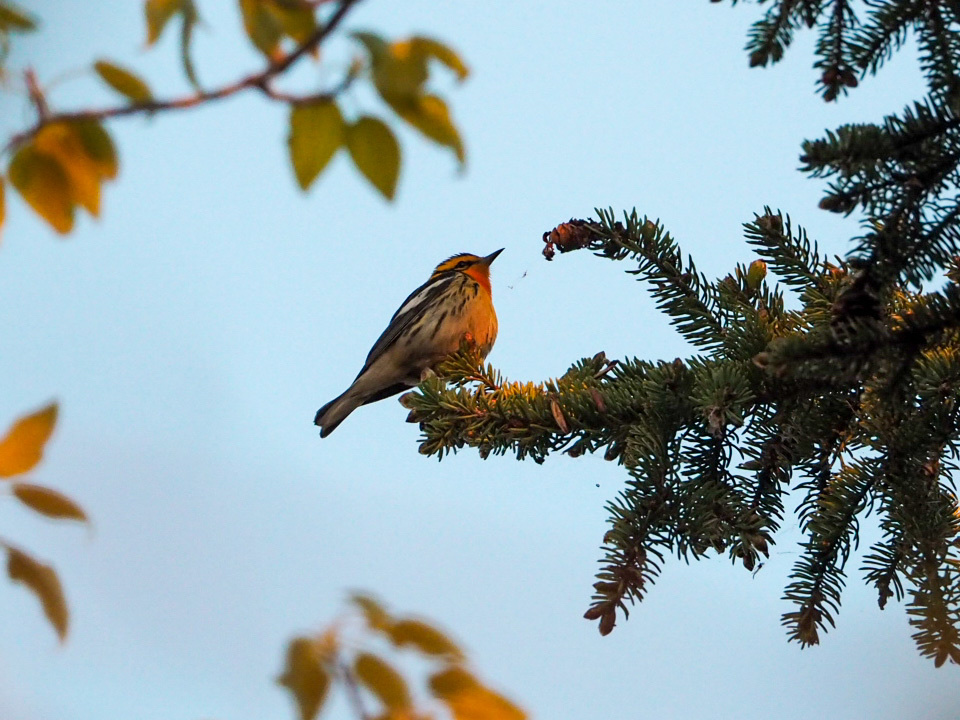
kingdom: Animalia
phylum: Chordata
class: Aves
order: Passeriformes
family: Parulidae
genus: Setophaga
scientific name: Setophaga fusca
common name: Blackburnian warbler
